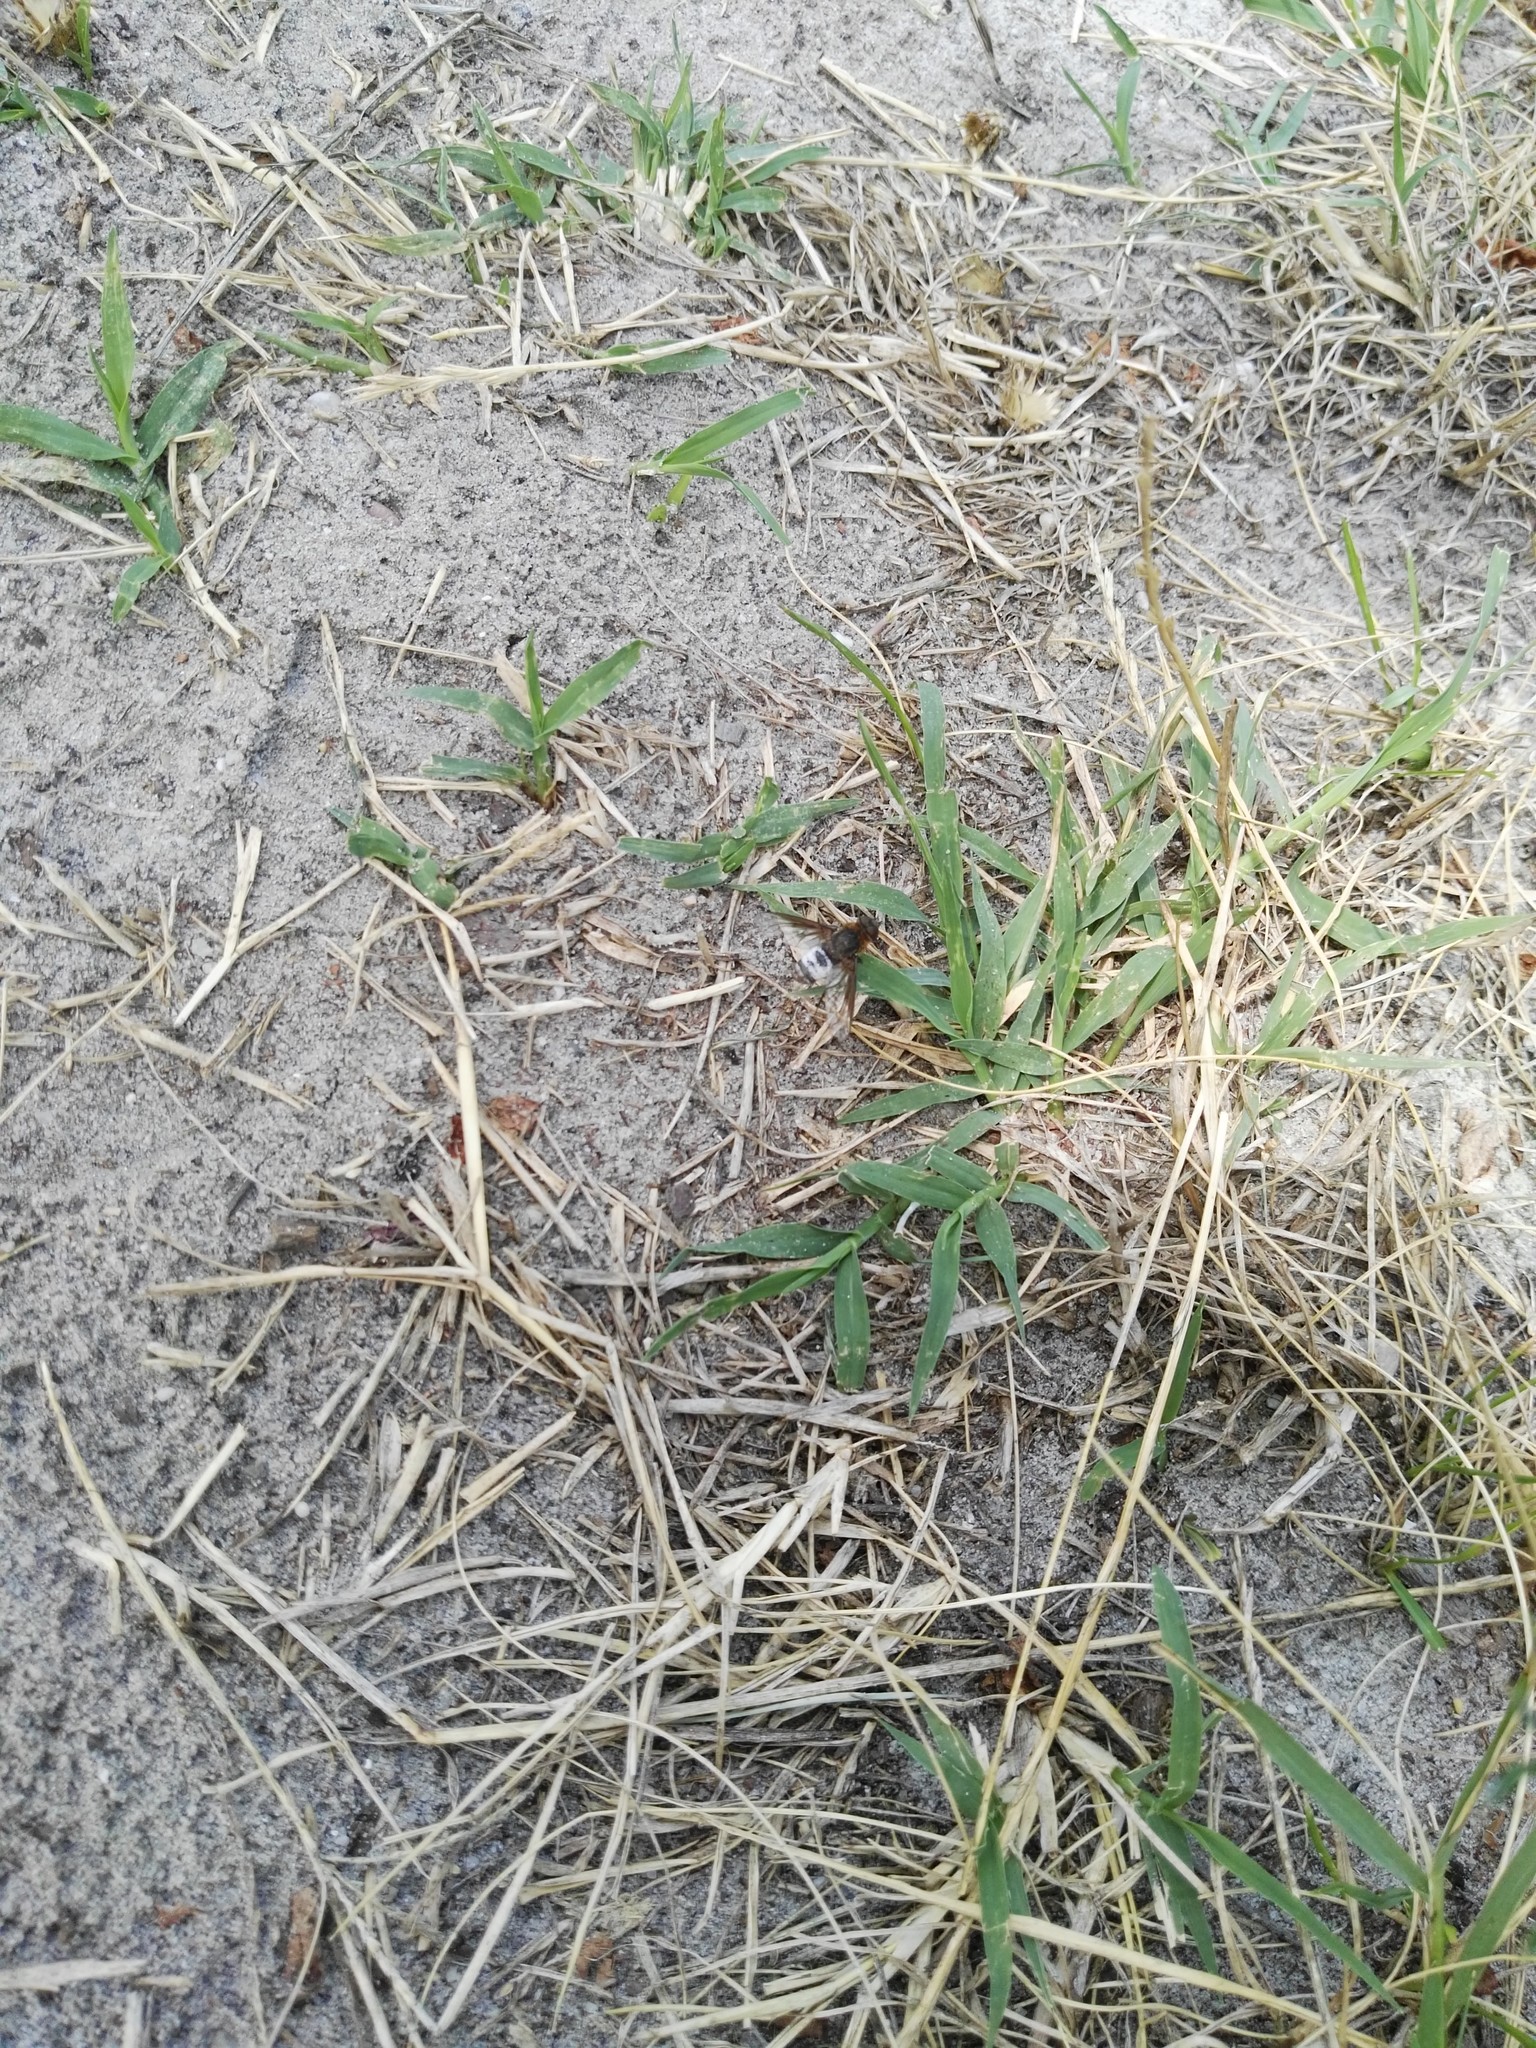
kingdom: Animalia
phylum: Arthropoda
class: Insecta
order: Diptera
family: Bombyliidae
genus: Defilippia
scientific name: Defilippia minos
